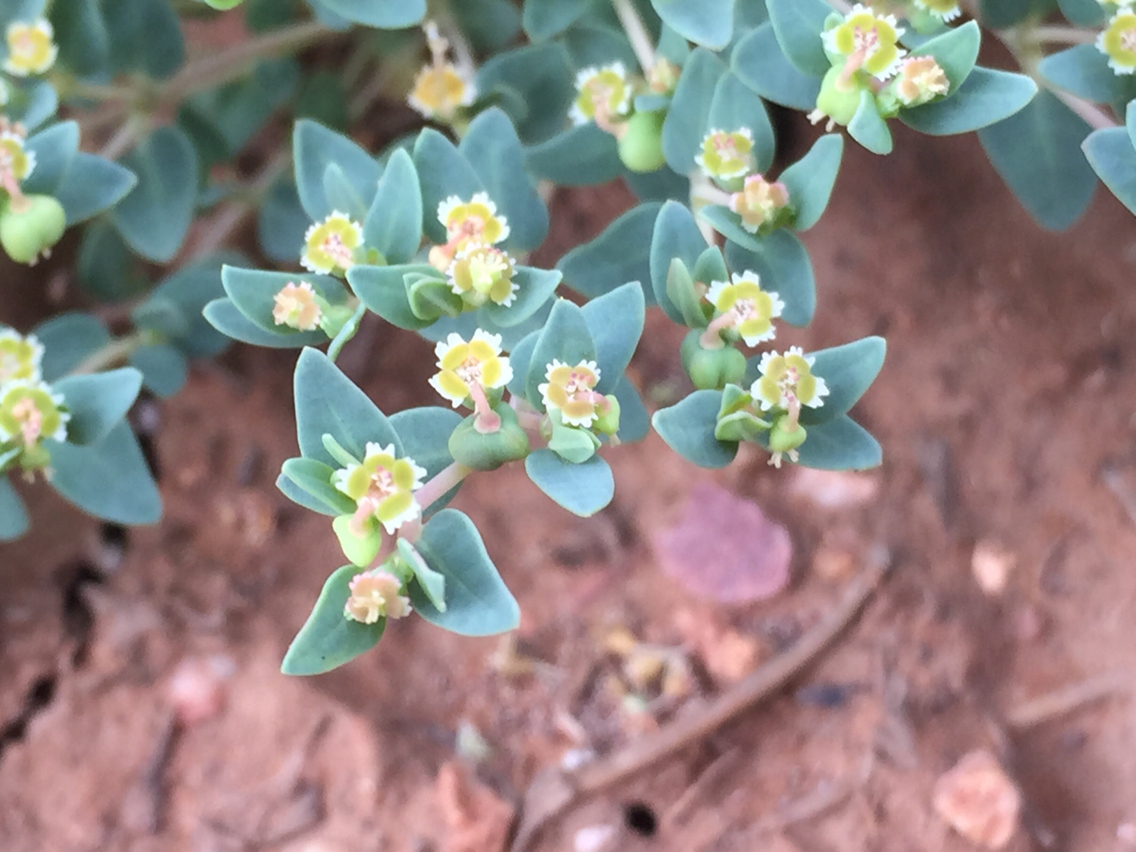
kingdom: Plantae
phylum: Tracheophyta
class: Magnoliopsida
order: Malpighiales
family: Euphorbiaceae
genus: Euphorbia
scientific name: Euphorbia fendleri
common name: Fendler's euphorbia
